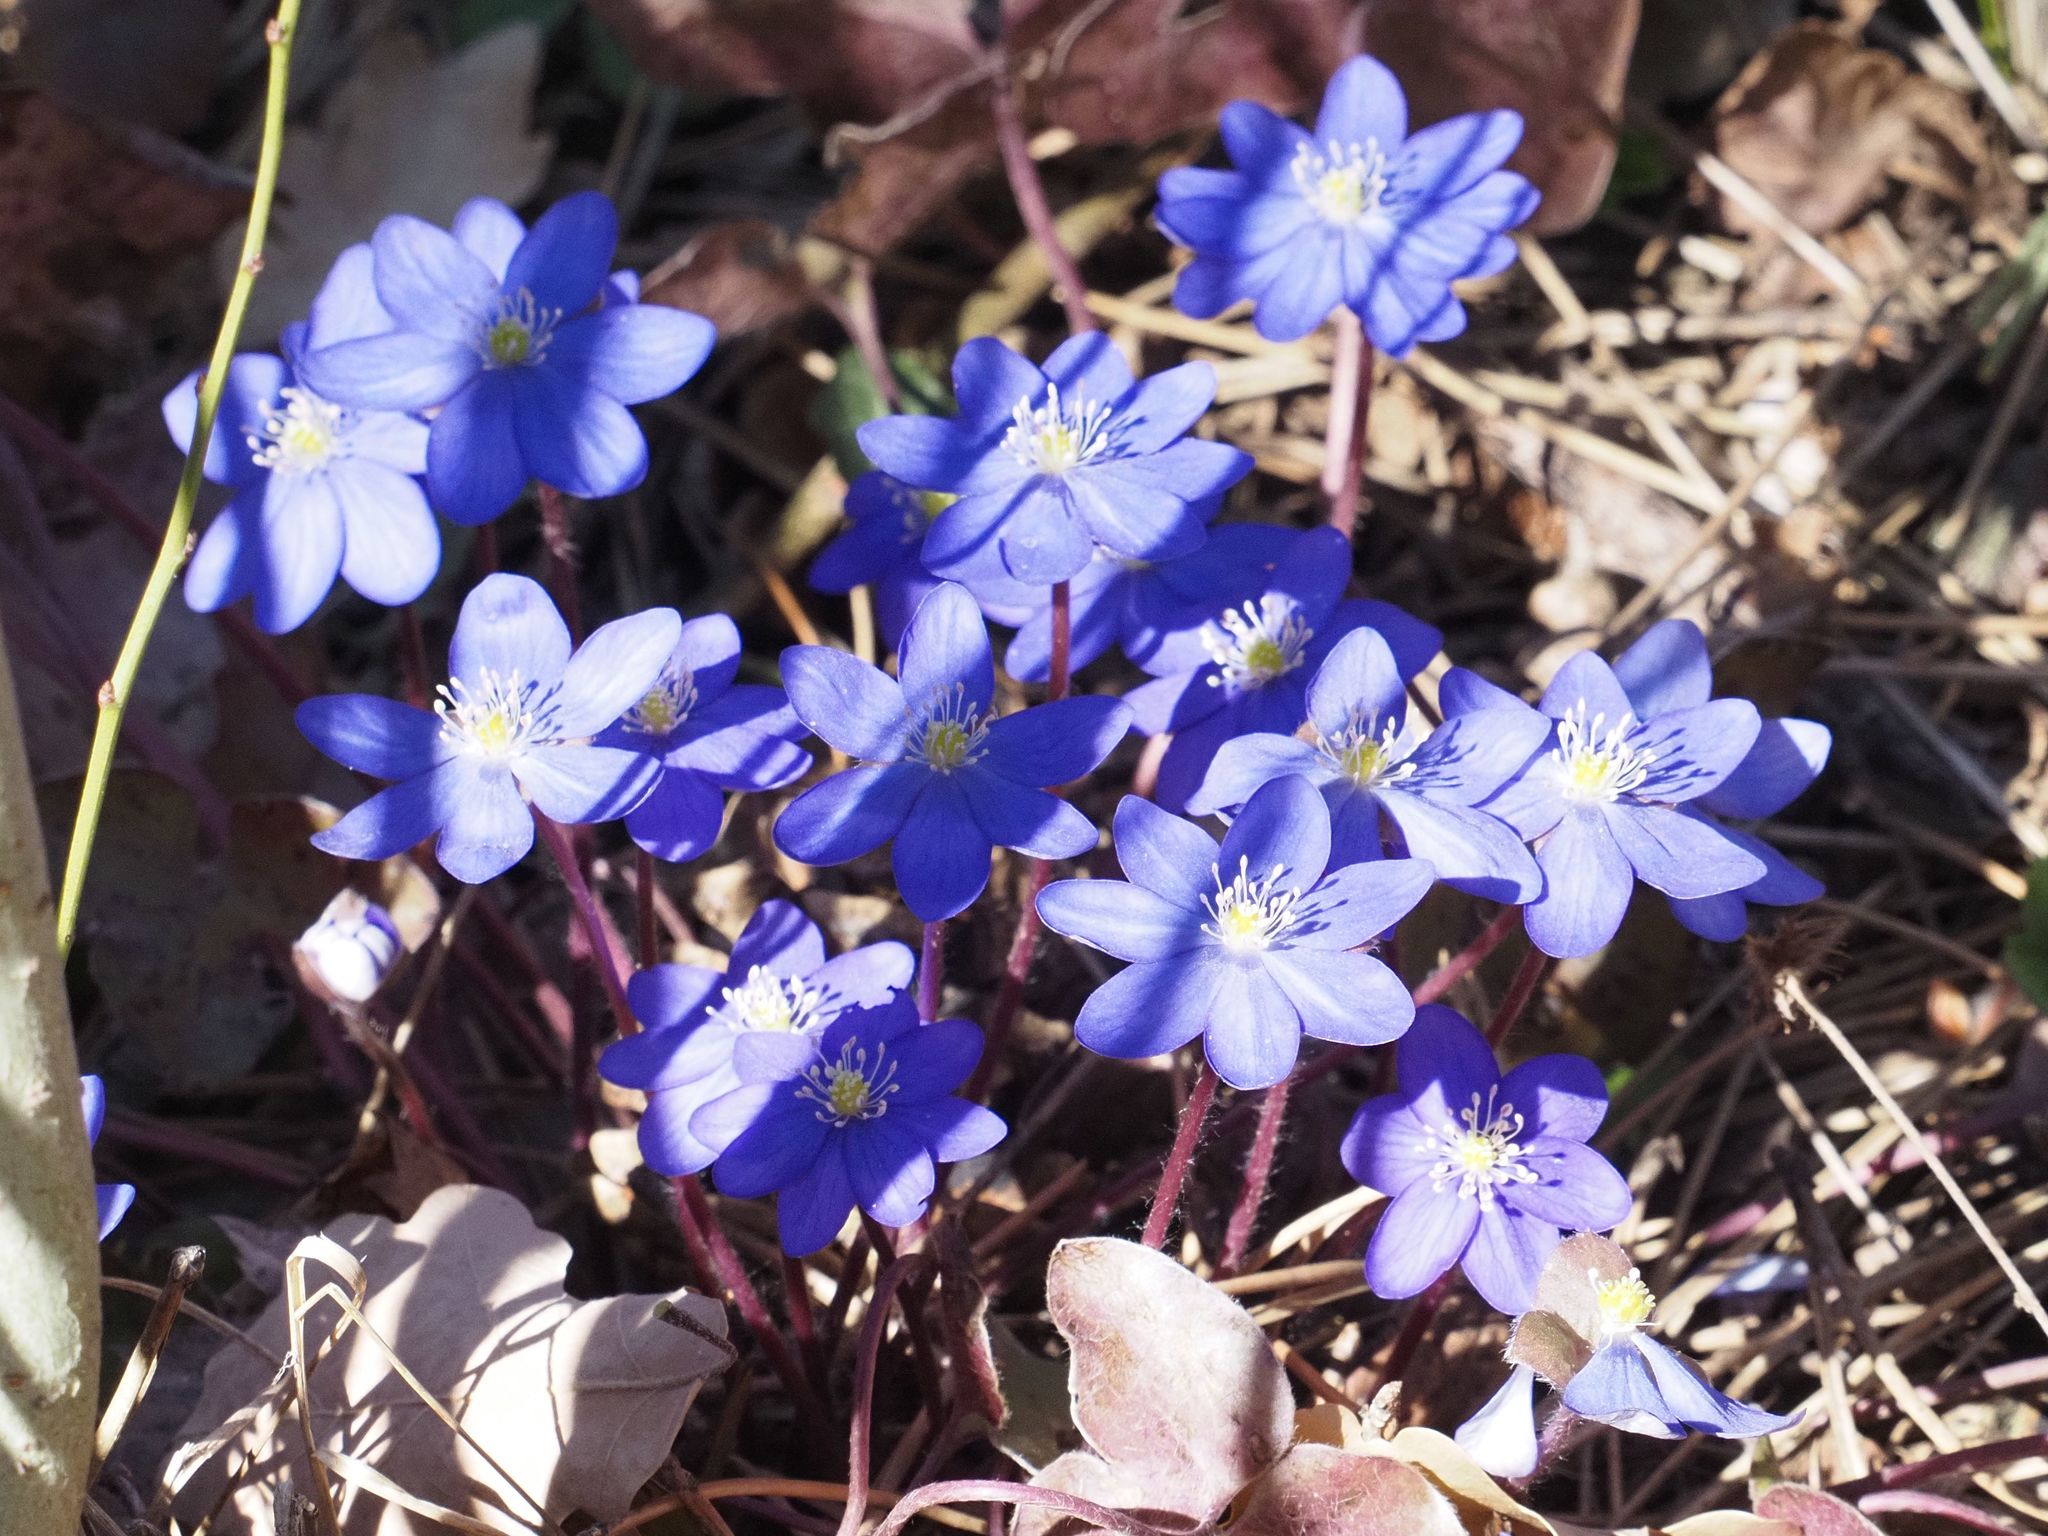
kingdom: Plantae
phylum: Tracheophyta
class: Magnoliopsida
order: Ranunculales
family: Ranunculaceae
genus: Hepatica
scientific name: Hepatica nobilis
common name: Liverleaf
